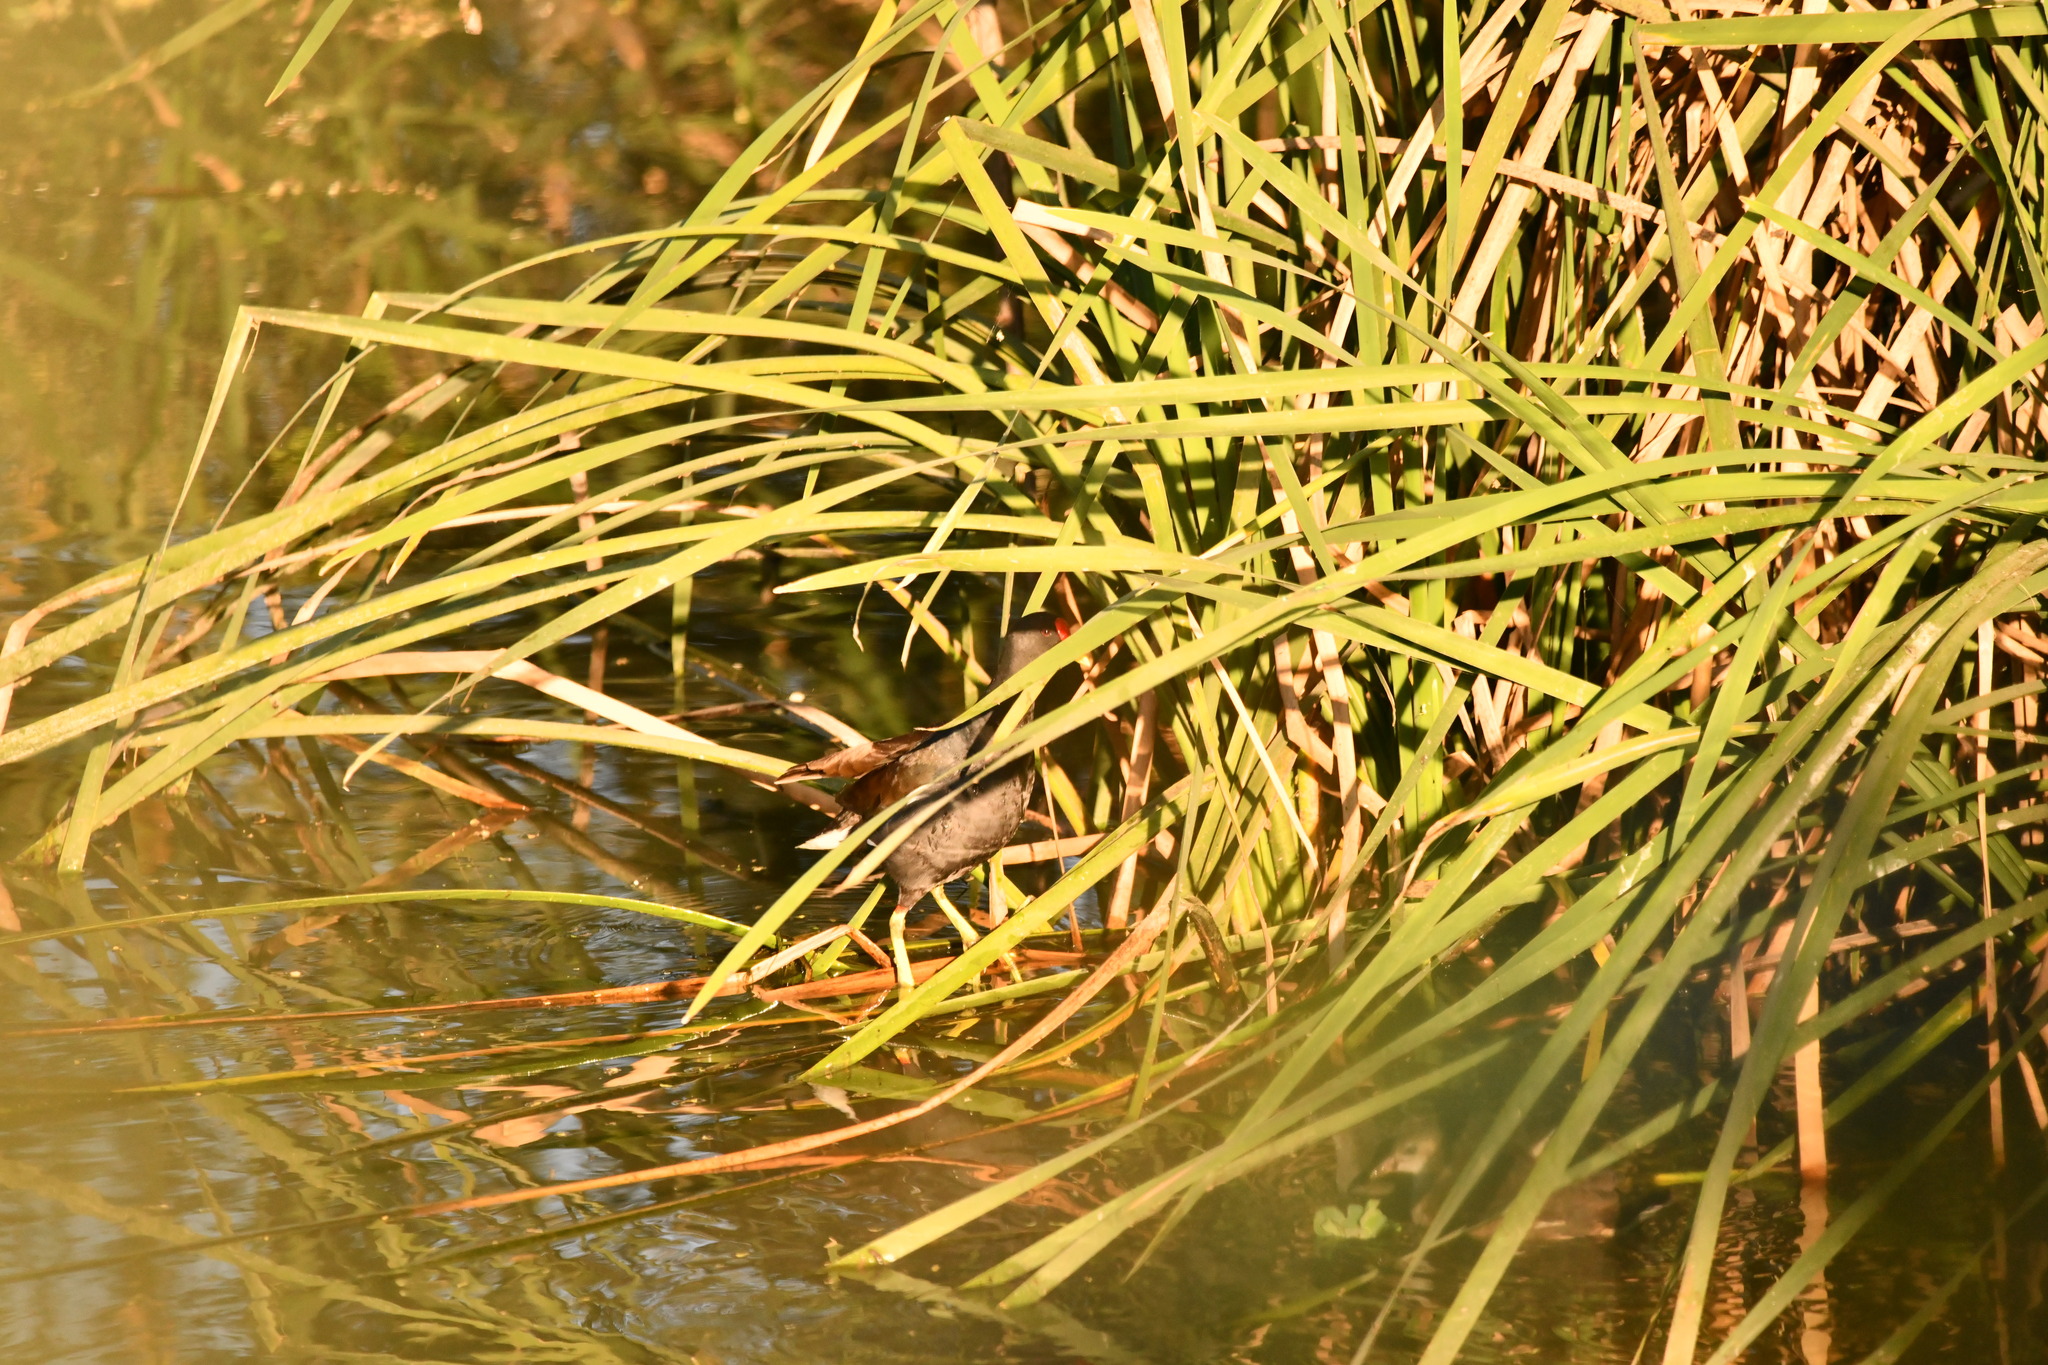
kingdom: Animalia
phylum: Chordata
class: Aves
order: Gruiformes
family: Rallidae
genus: Gallinula
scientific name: Gallinula chloropus
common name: Common moorhen
